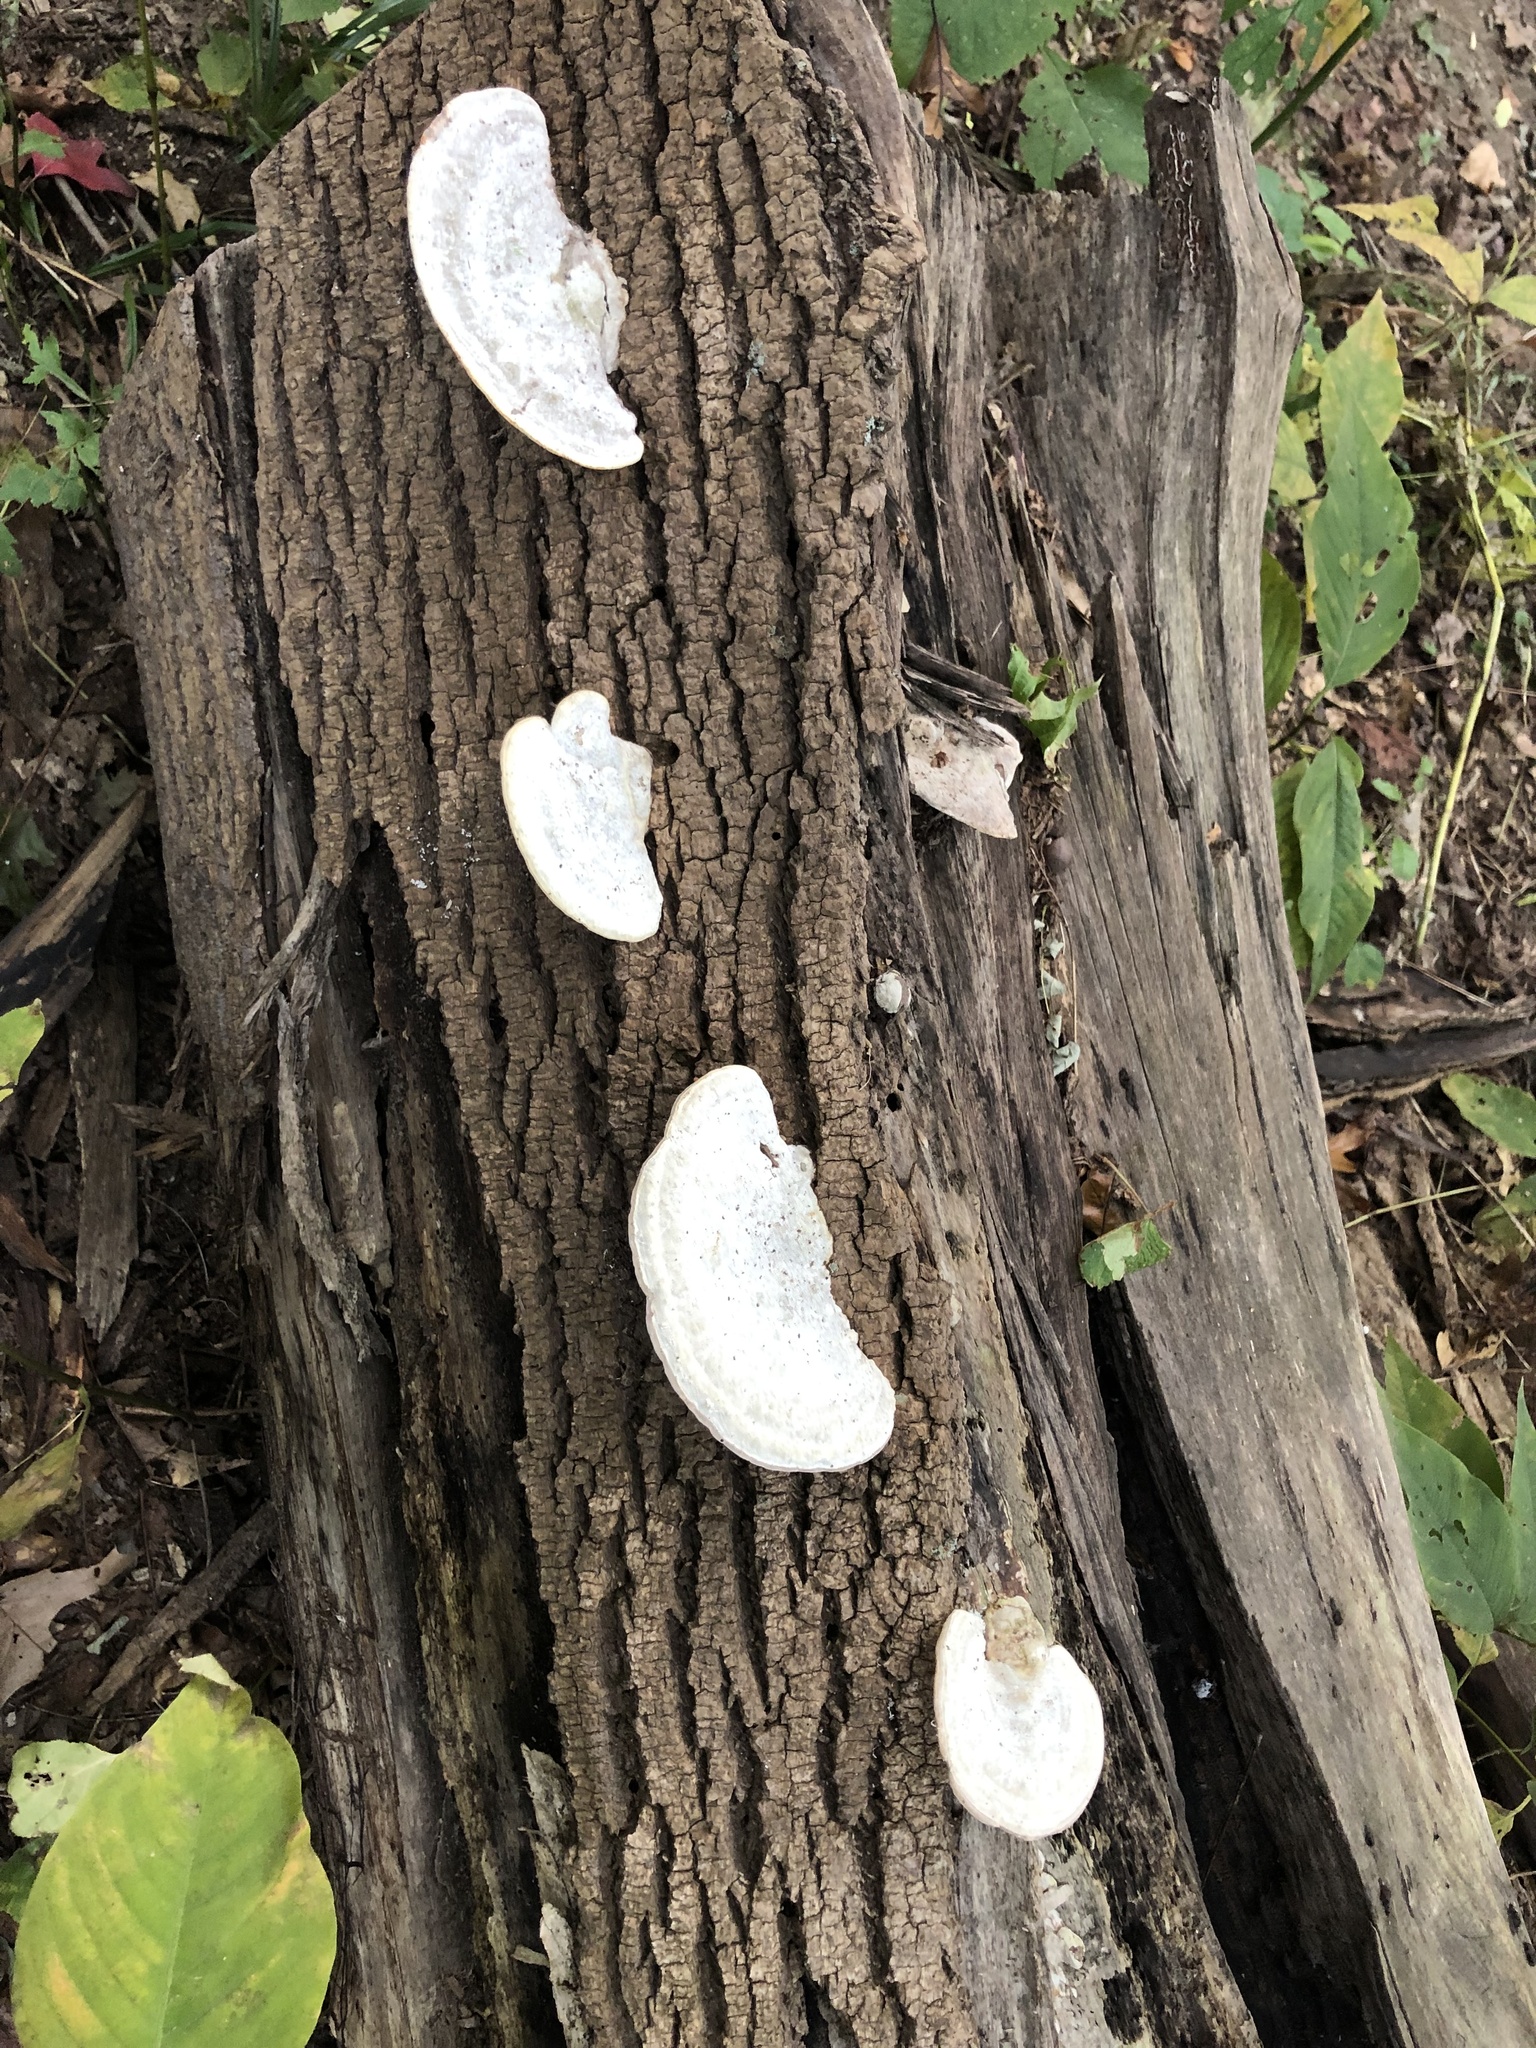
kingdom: Fungi
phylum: Basidiomycota
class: Agaricomycetes
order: Polyporales
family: Polyporaceae
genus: Trametes
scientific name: Trametes gibbosa
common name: Lumpy bracket
